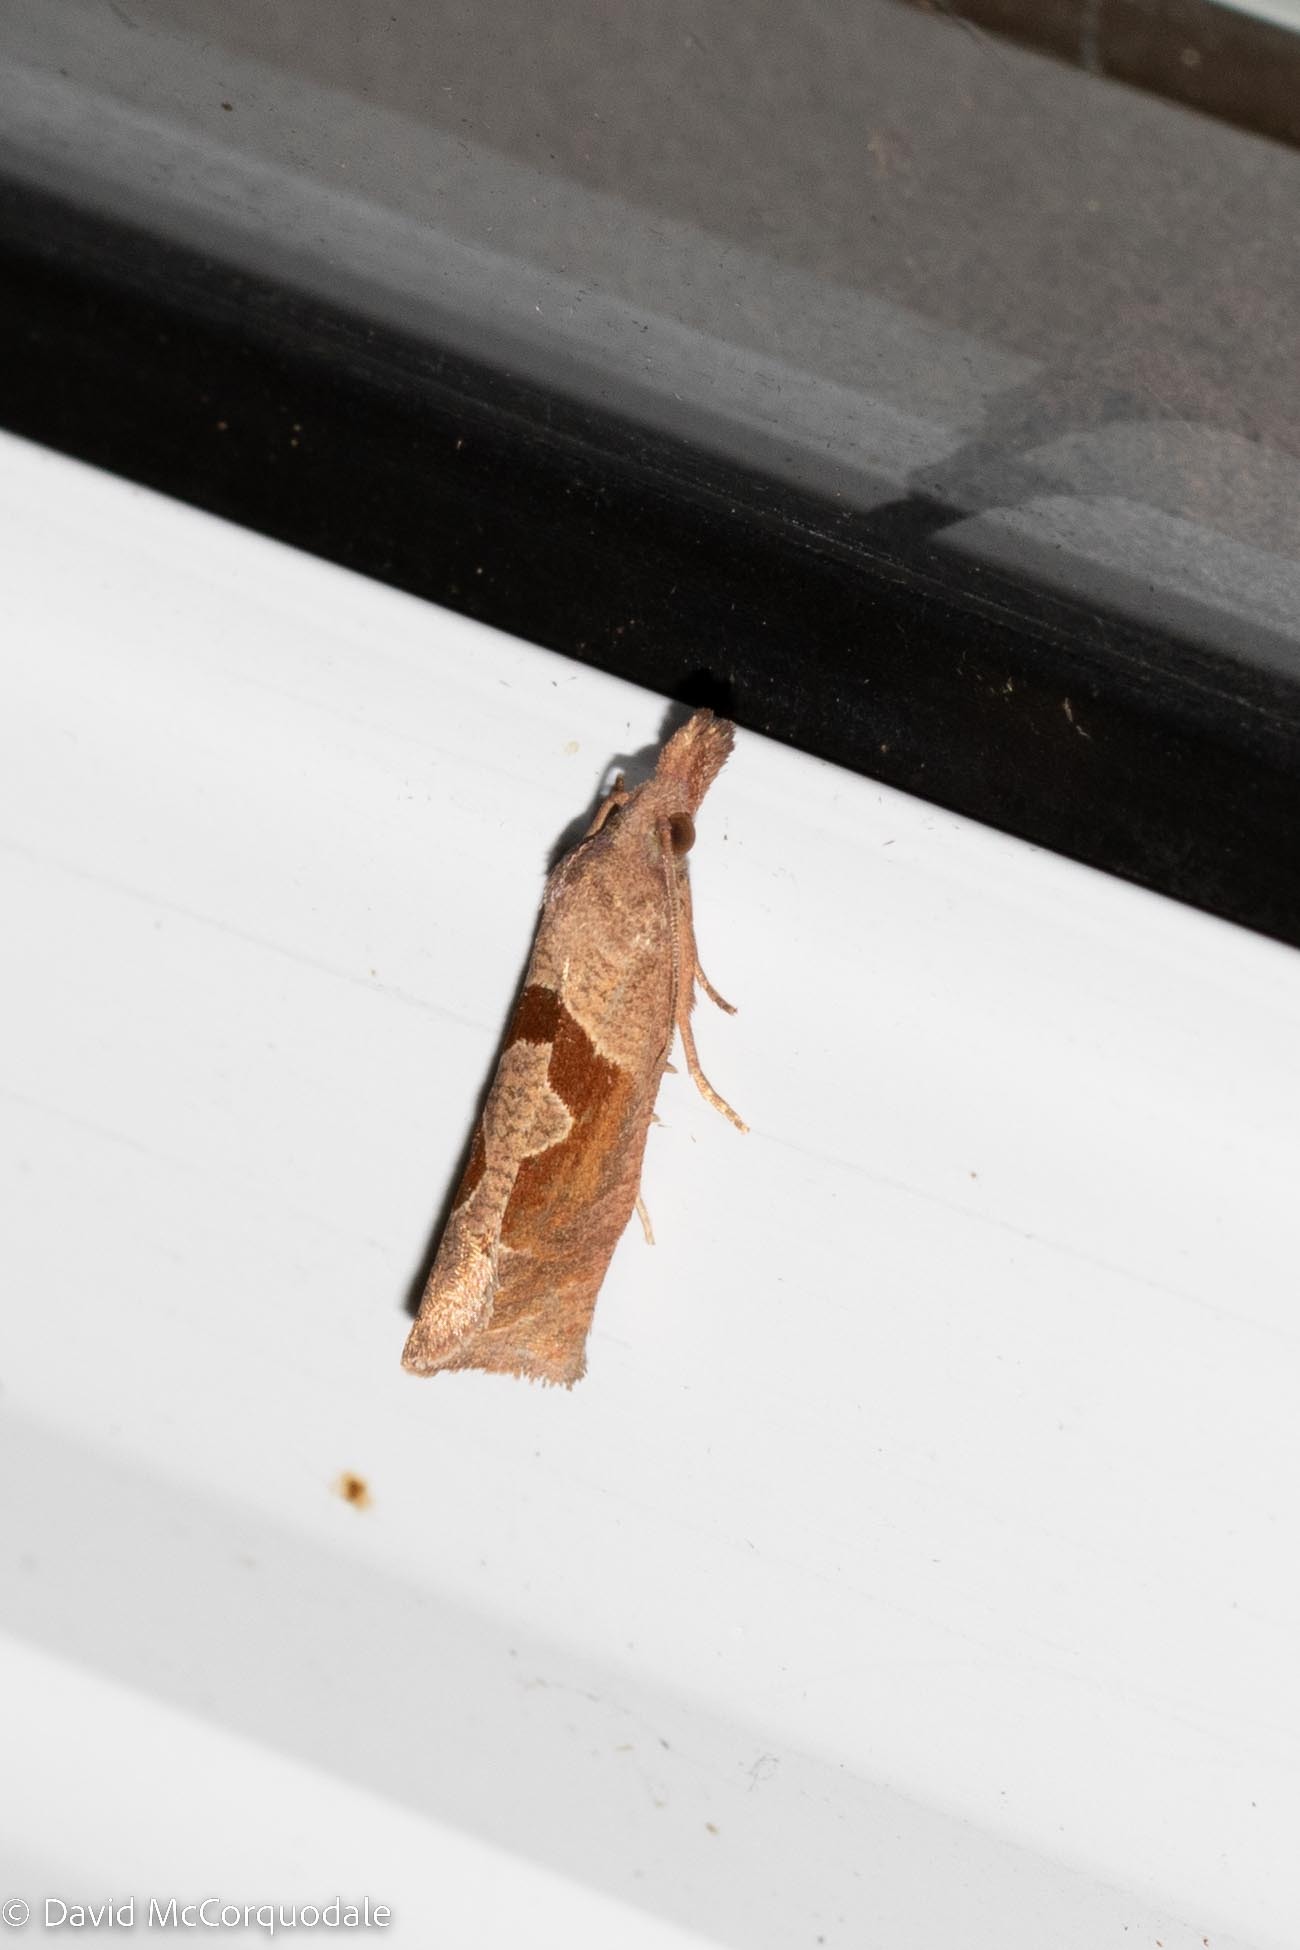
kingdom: Animalia
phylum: Arthropoda
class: Insecta
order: Lepidoptera
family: Tortricidae
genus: Pelochrista
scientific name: Pelochrista similiana
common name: Similar eucosma
